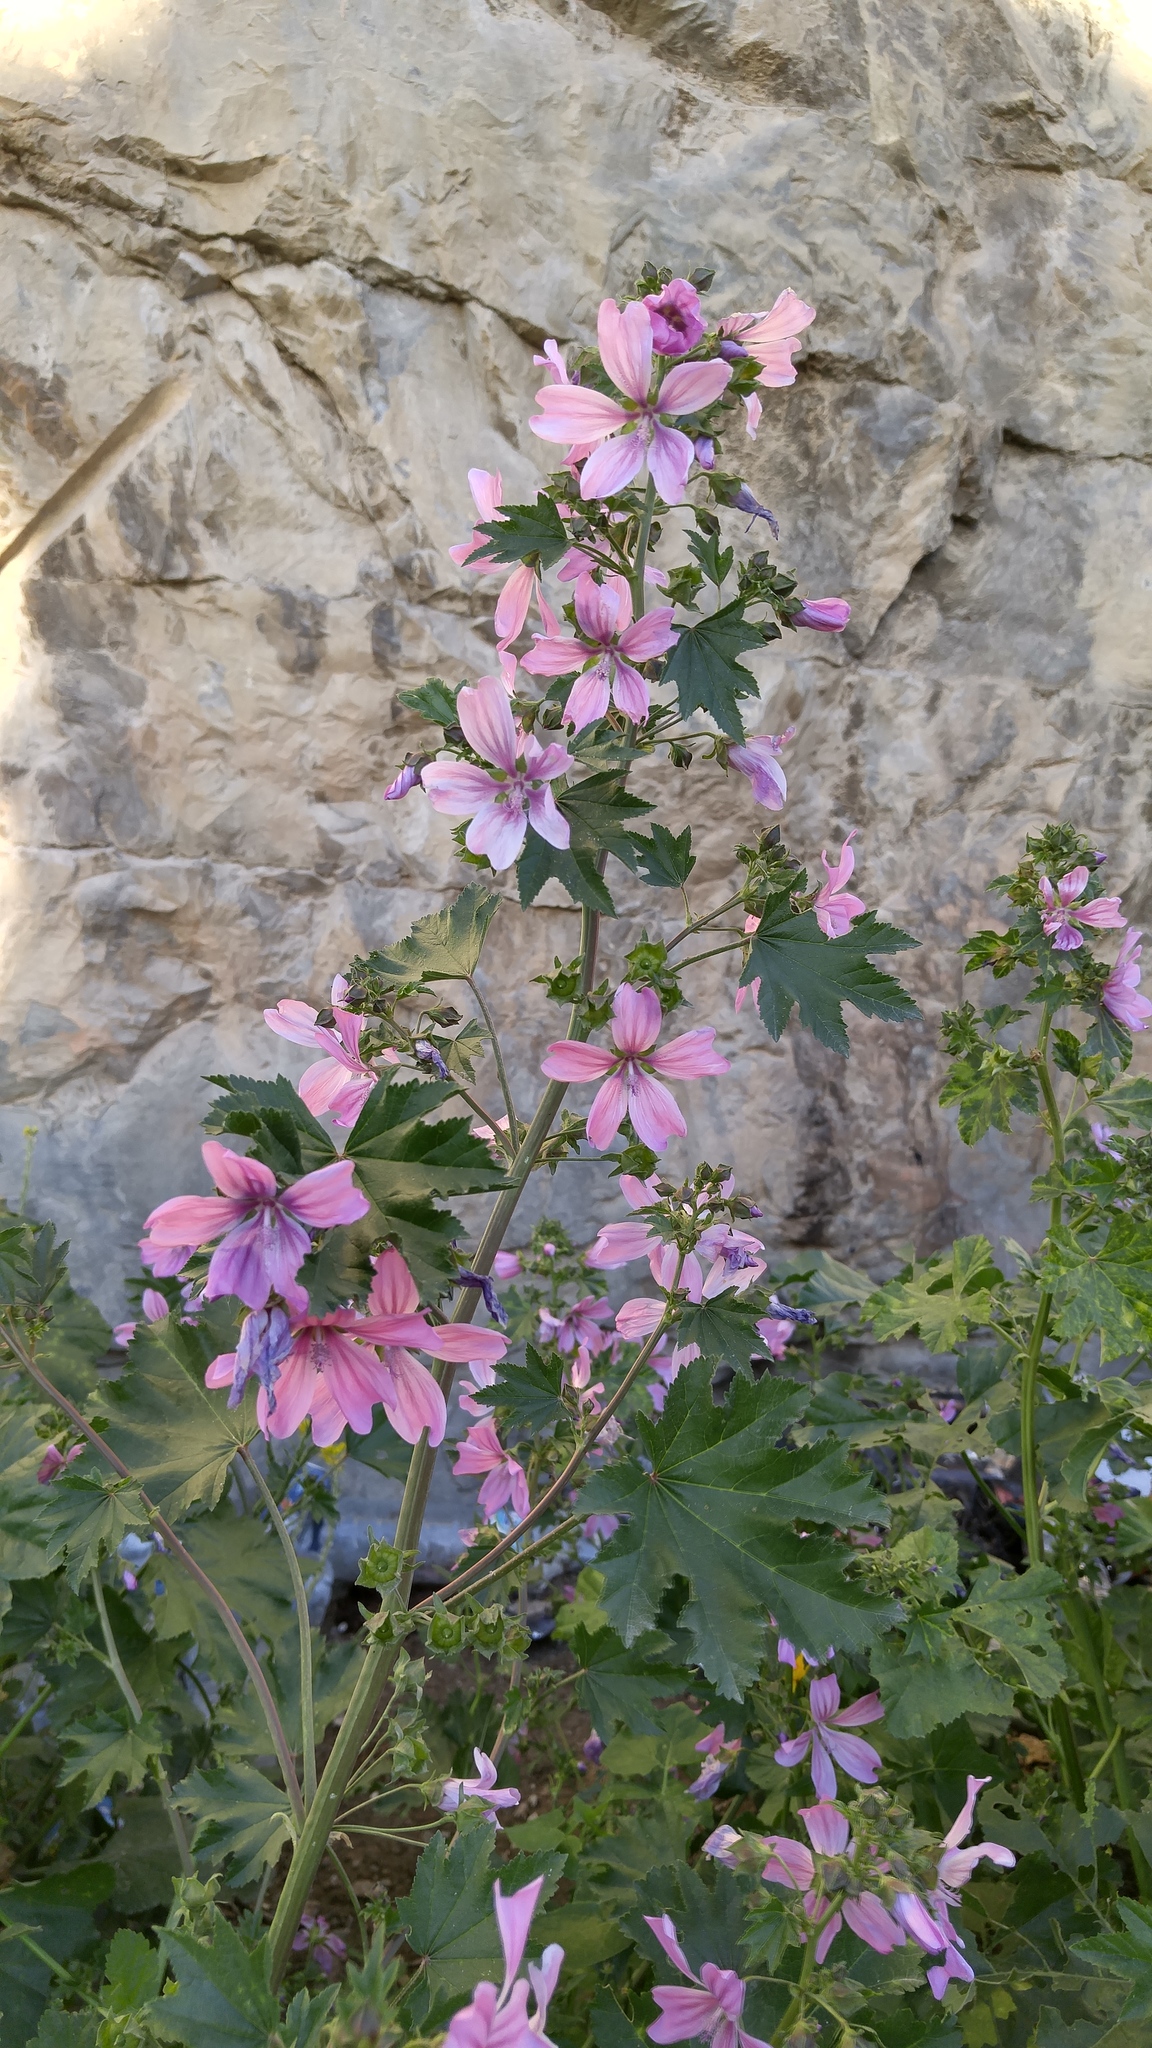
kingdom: Plantae
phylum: Tracheophyta
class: Magnoliopsida
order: Malvales
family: Malvaceae
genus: Malva
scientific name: Malva sylvestris
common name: Common mallow
